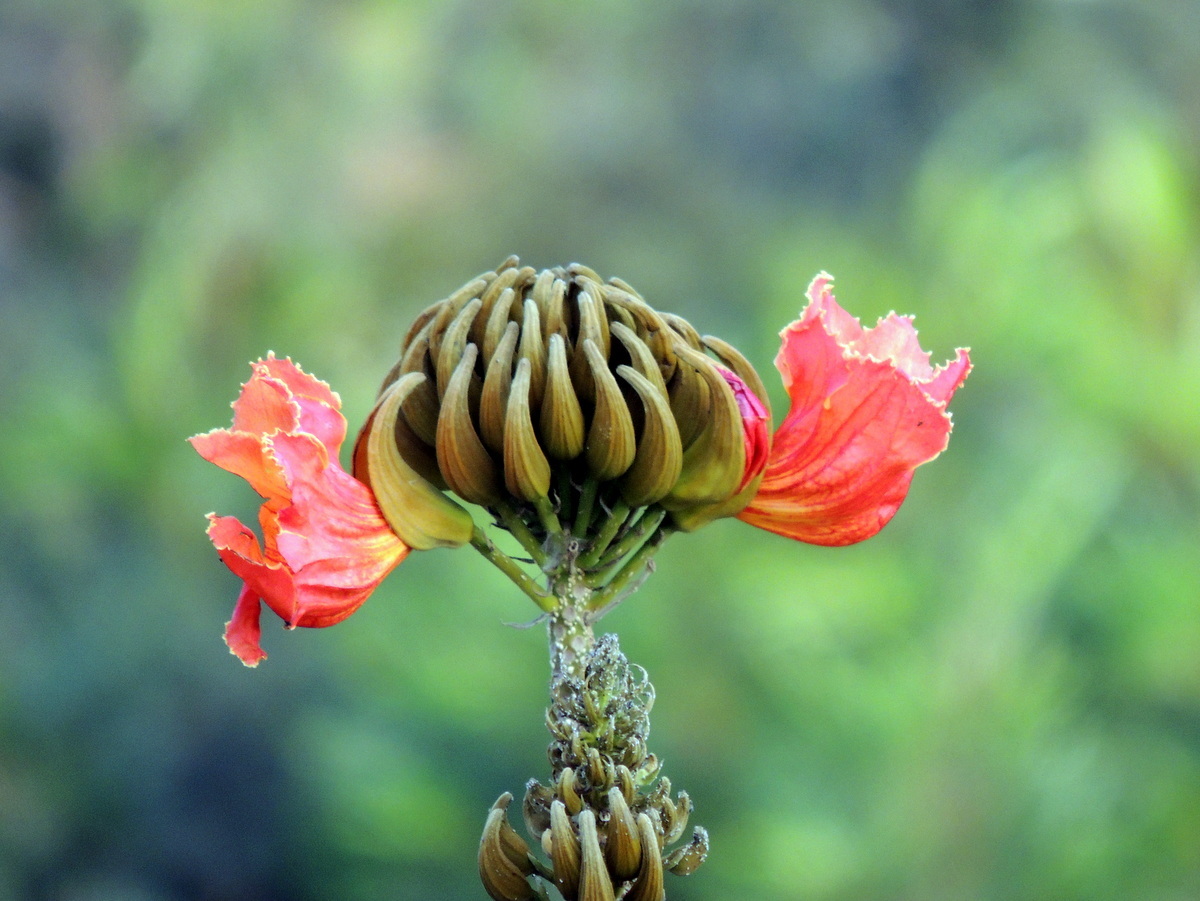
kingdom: Plantae
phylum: Tracheophyta
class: Magnoliopsida
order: Lamiales
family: Bignoniaceae
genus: Spathodea
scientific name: Spathodea campanulata
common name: African tuliptree
